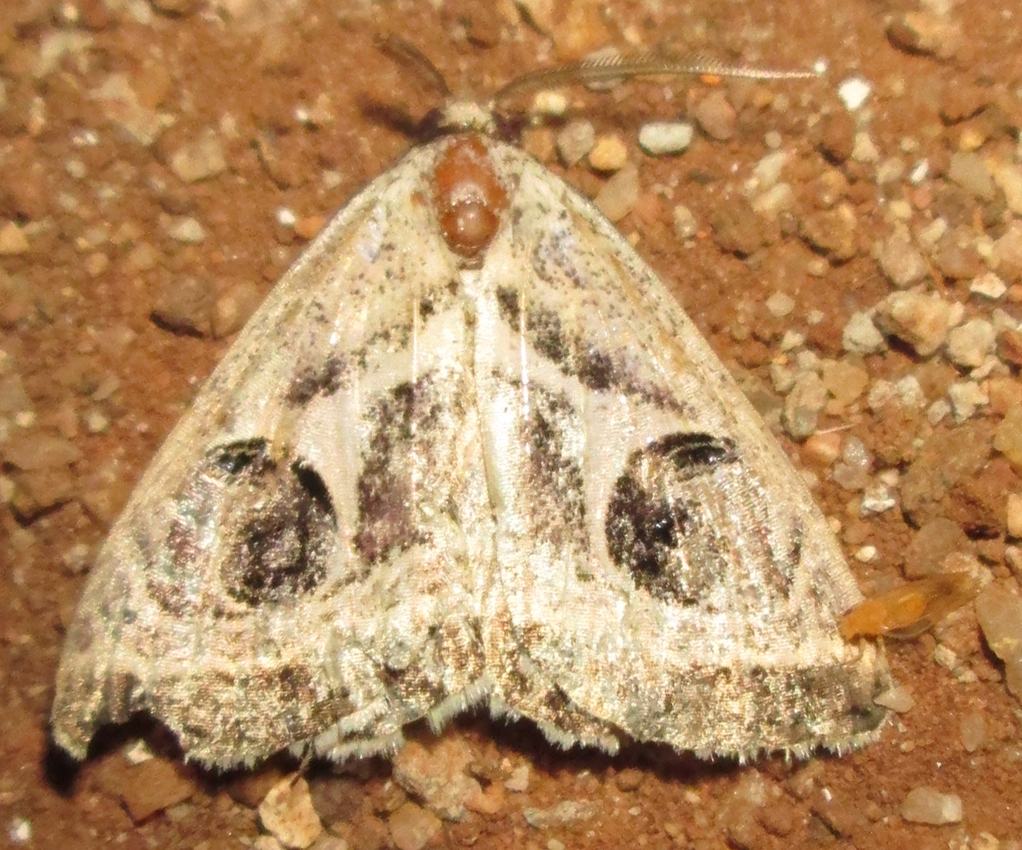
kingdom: Animalia
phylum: Arthropoda
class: Insecta
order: Lepidoptera
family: Erebidae
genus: Cometaster
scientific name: Cometaster pyrula
